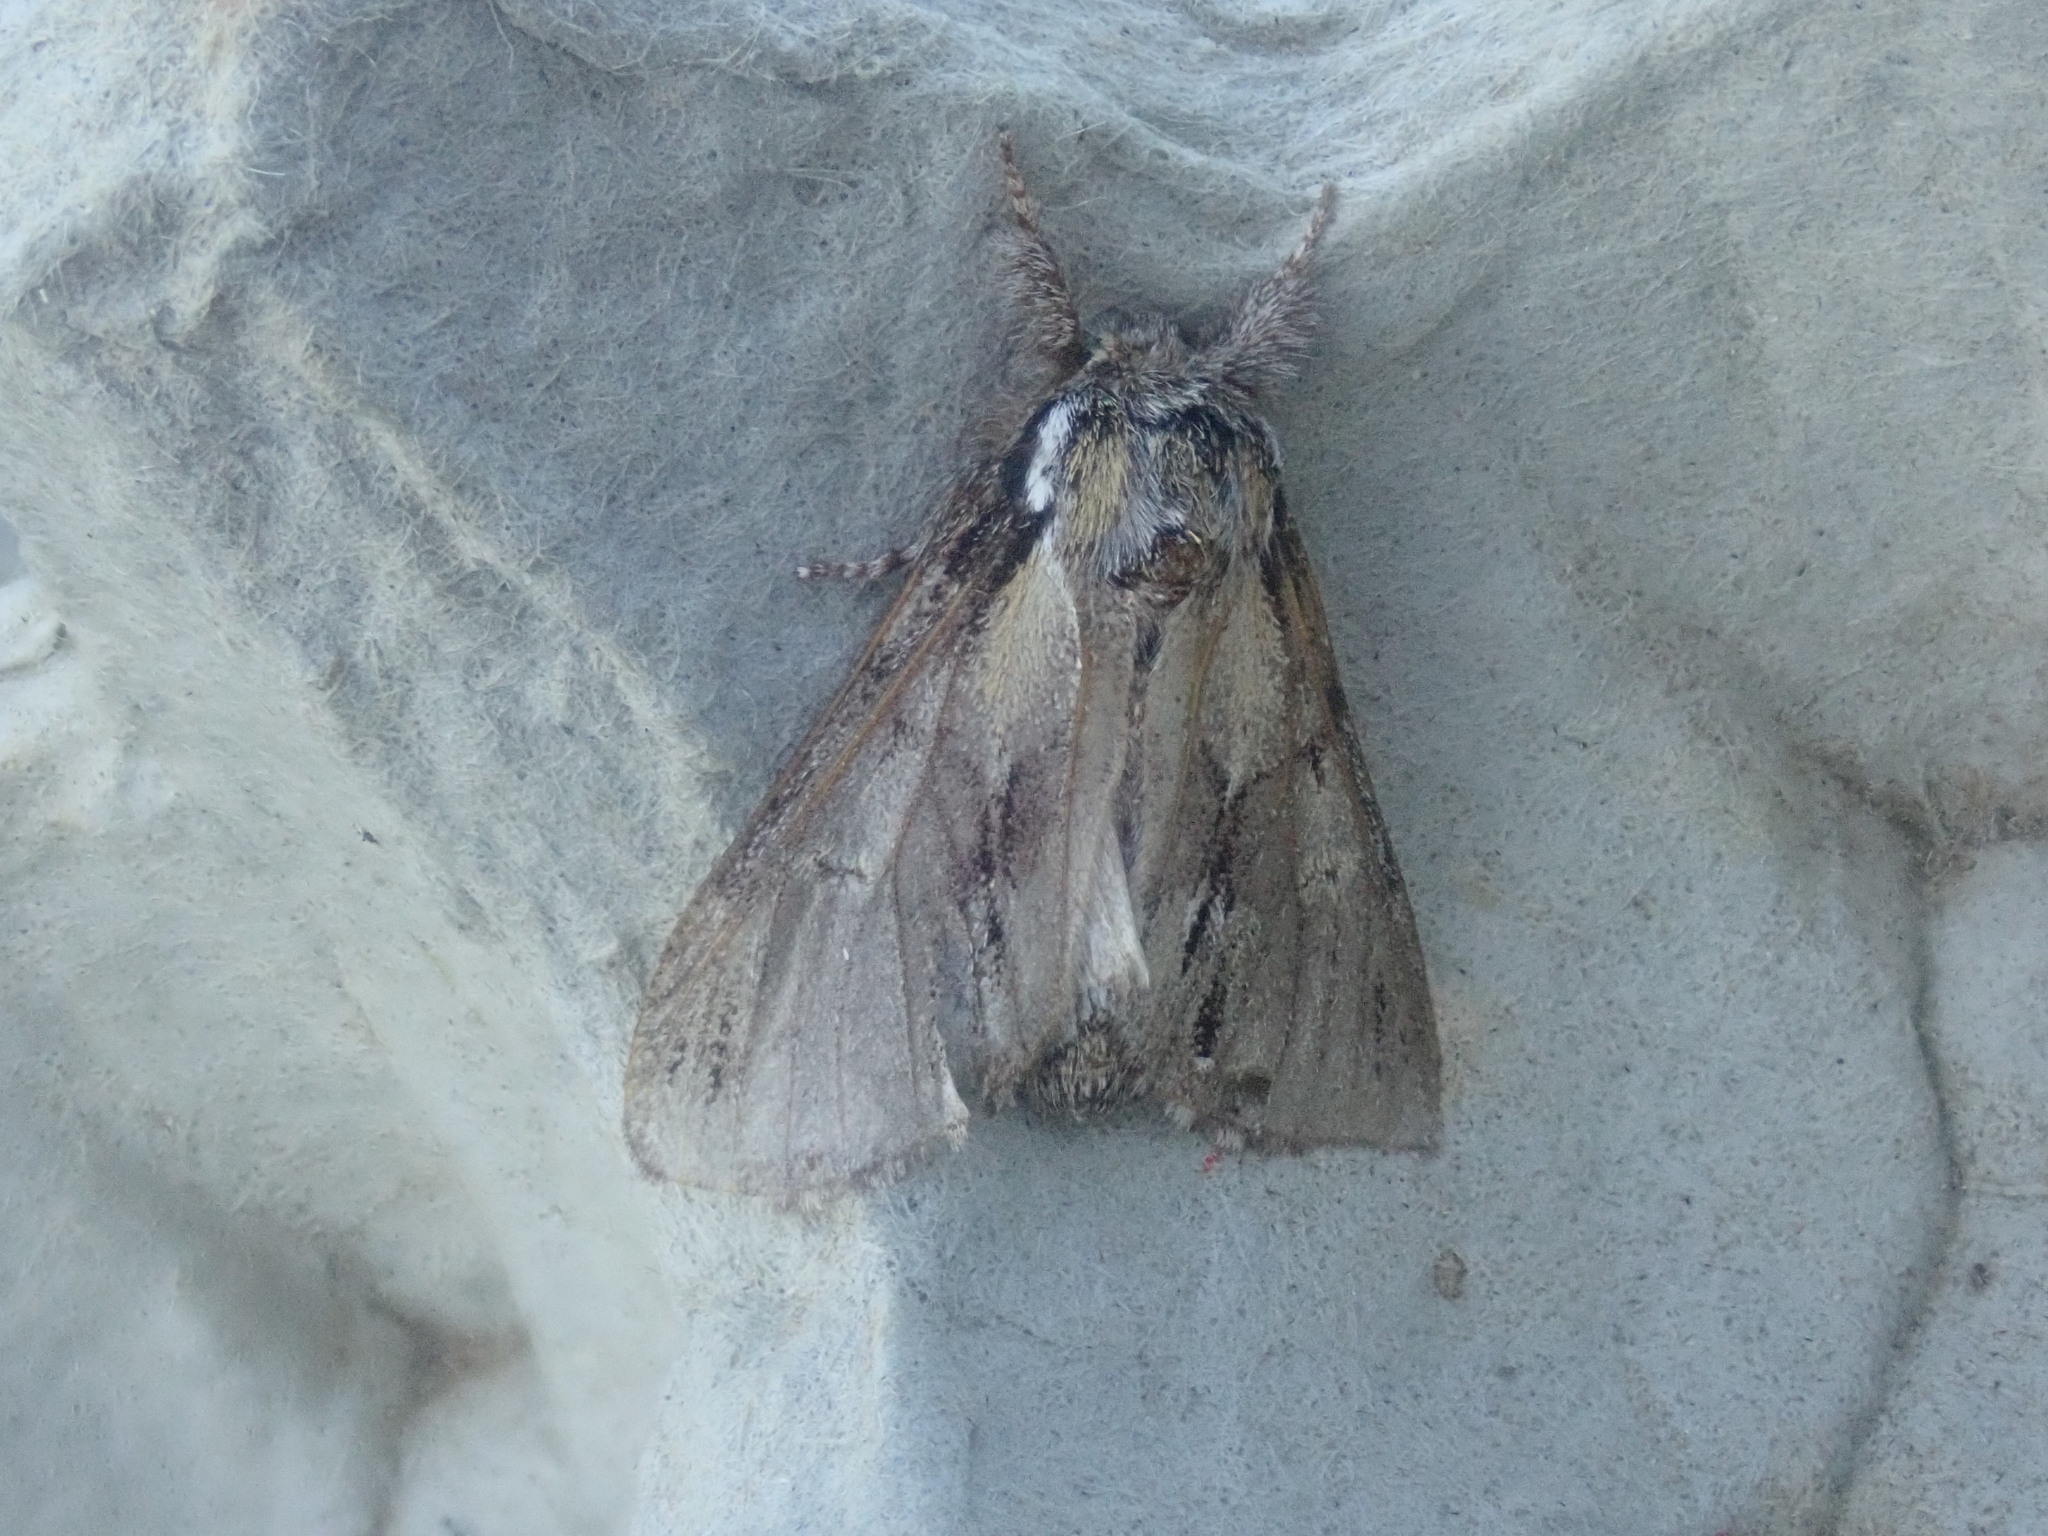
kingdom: Animalia
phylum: Arthropoda
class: Insecta
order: Lepidoptera
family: Notodontidae
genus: Paraeschra
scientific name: Paraeschra georgica
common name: Georgian prominent
